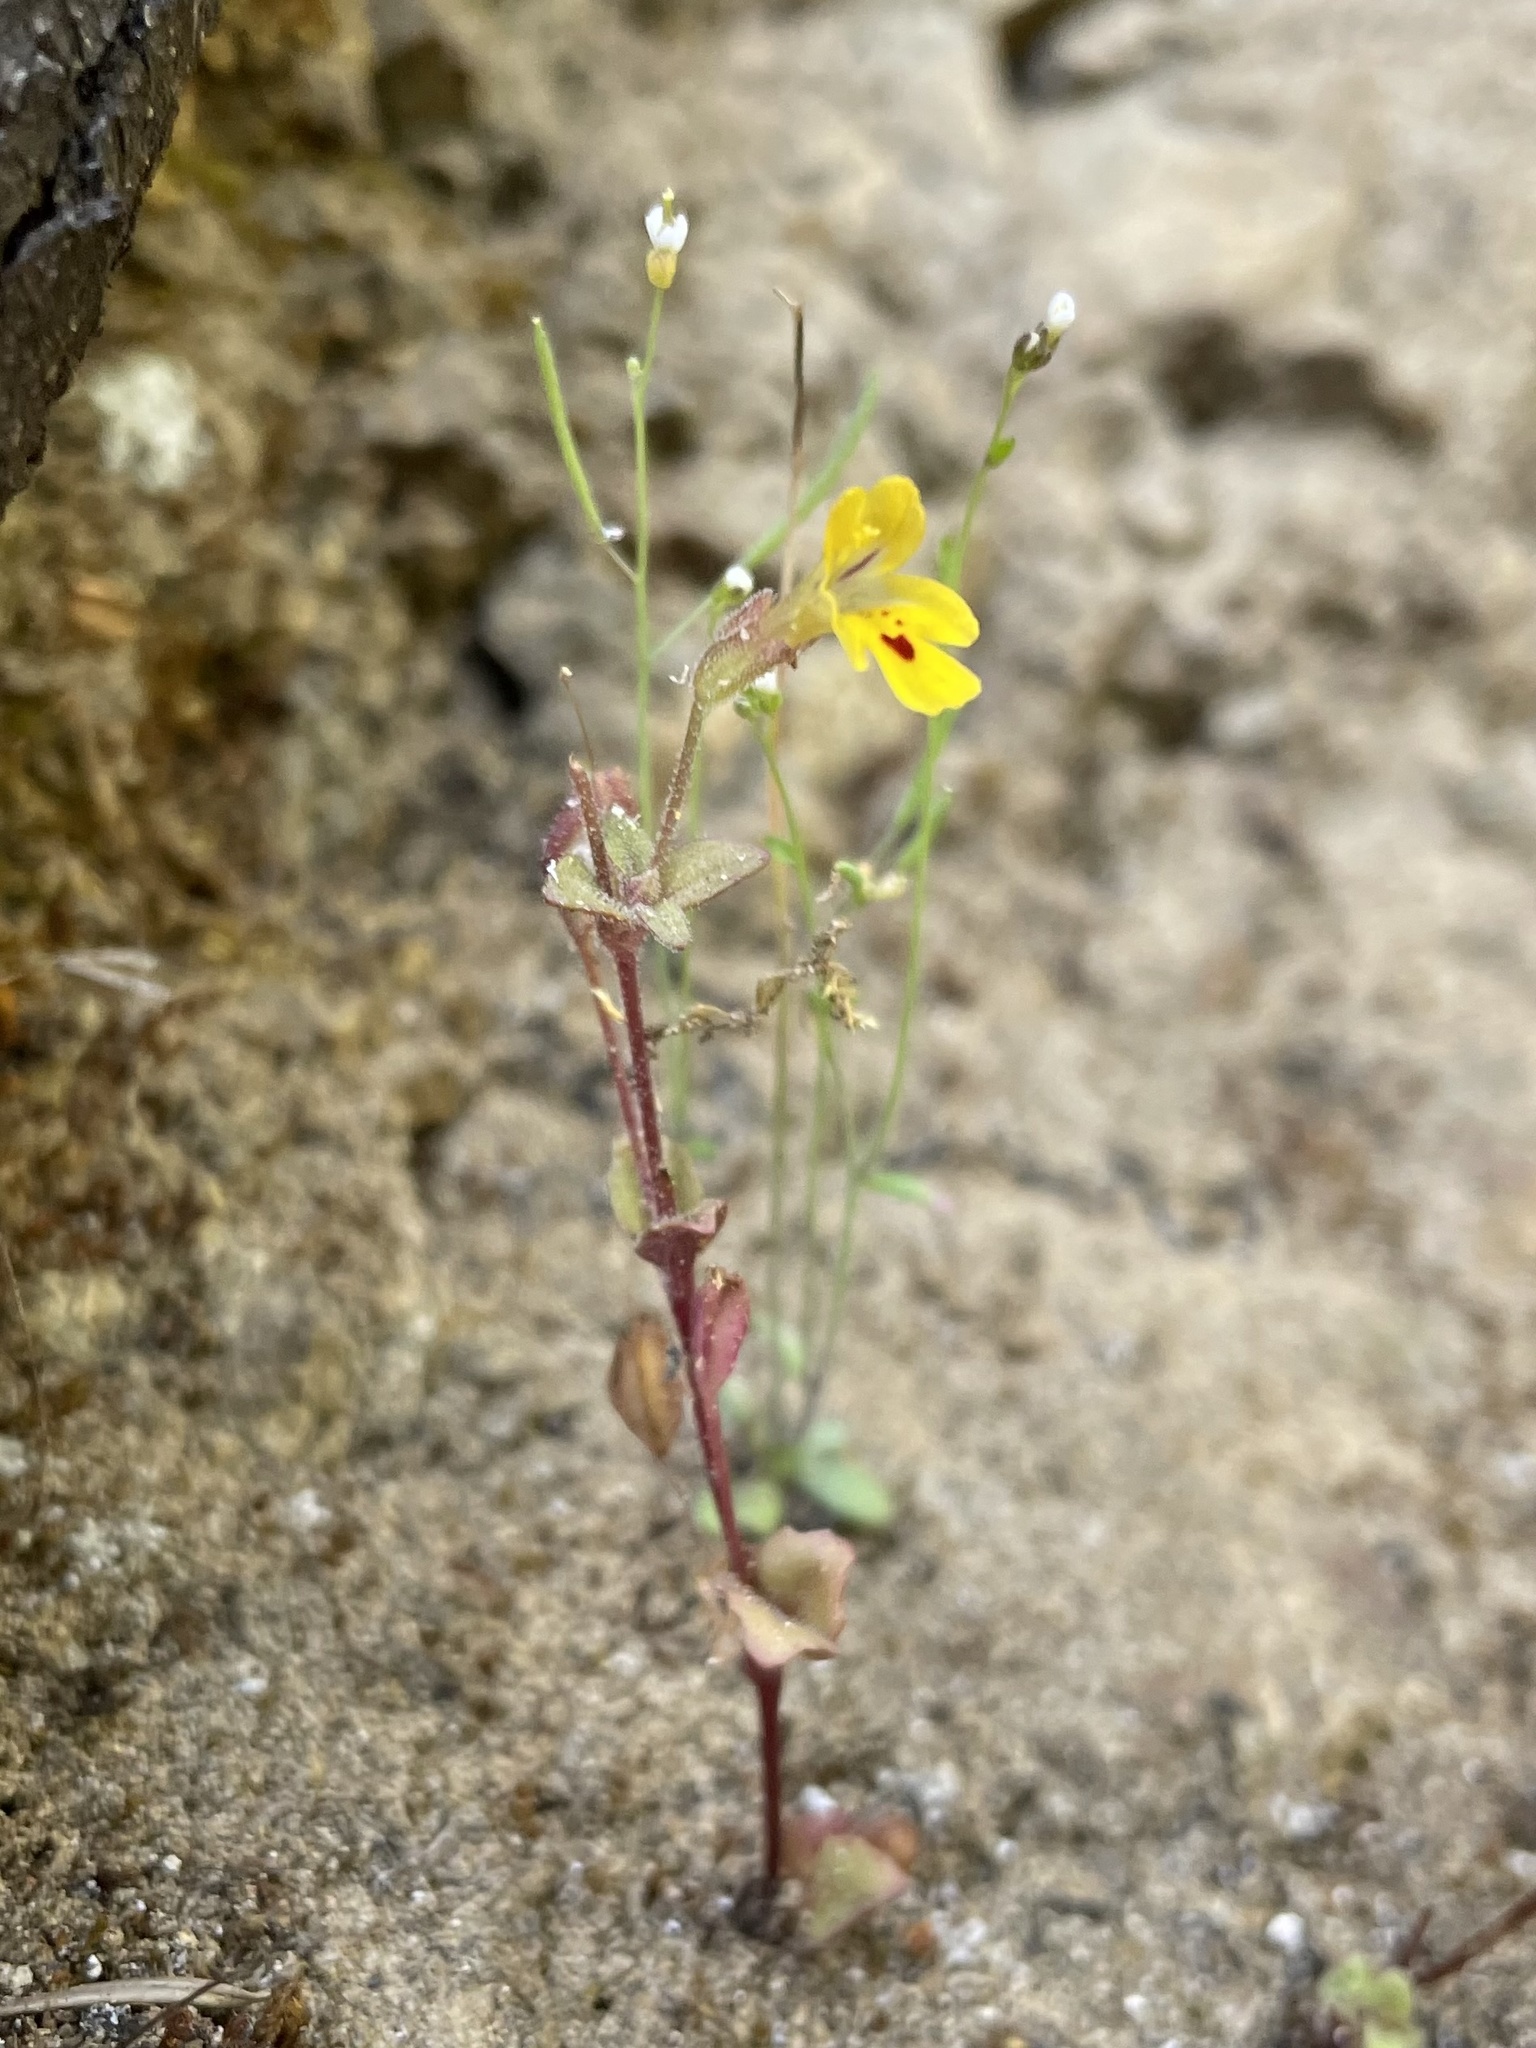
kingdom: Plantae
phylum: Tracheophyta
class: Magnoliopsida
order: Lamiales
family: Phrymaceae
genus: Erythranthe
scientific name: Erythranthe alsinoides
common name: Chickweed monkeyflower
